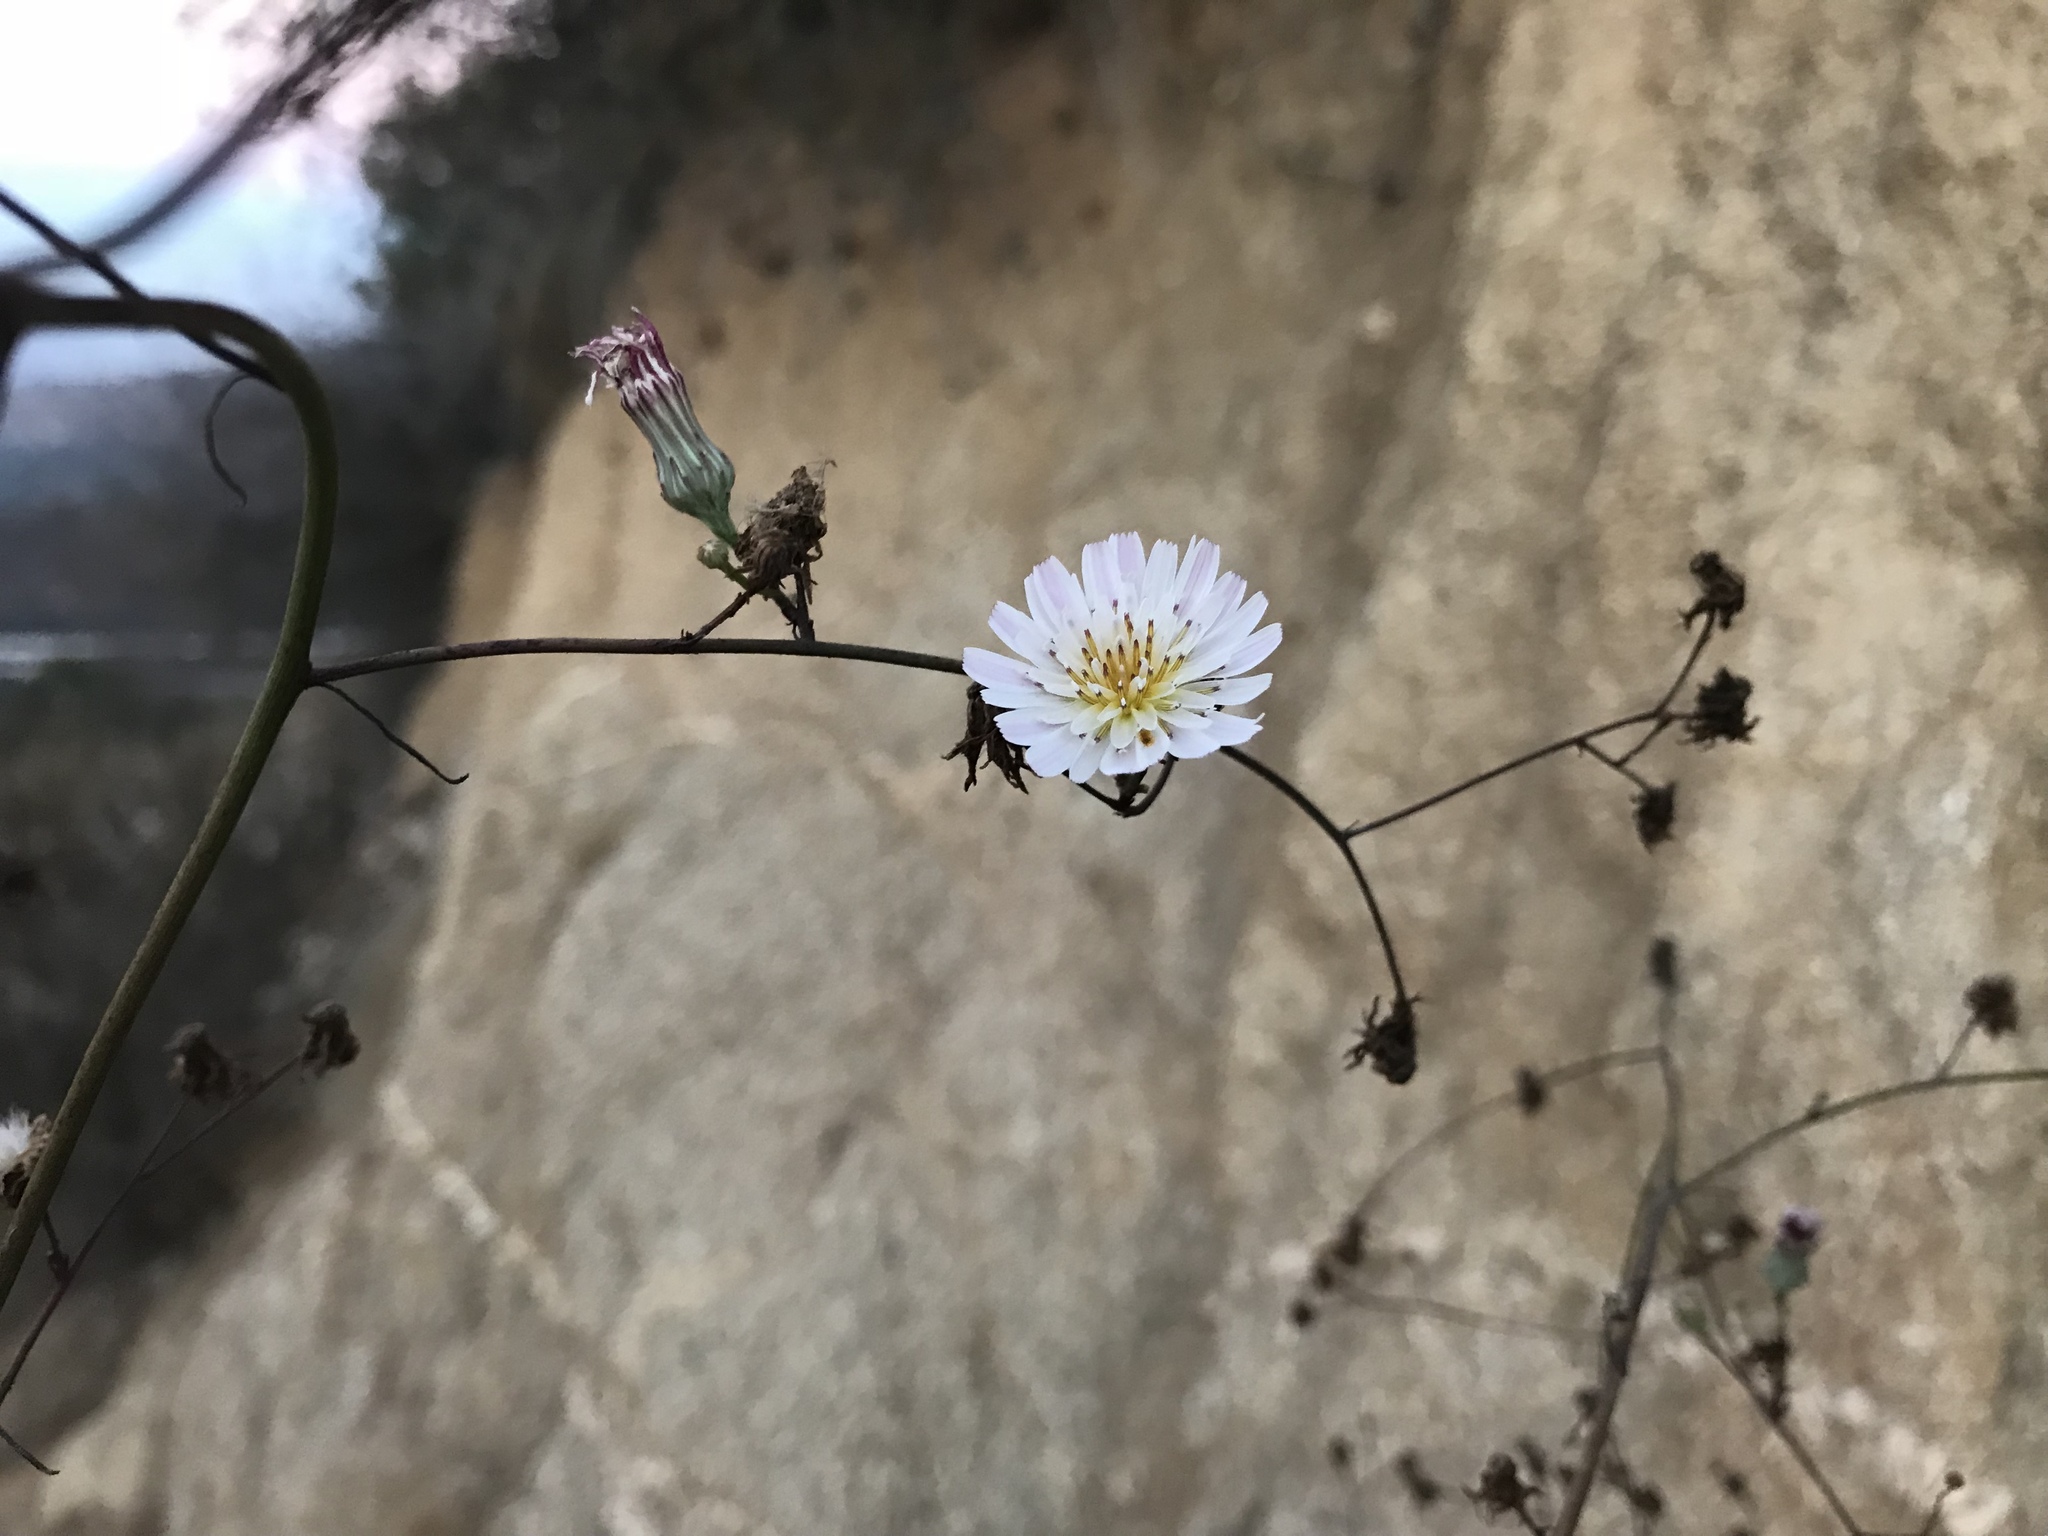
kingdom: Plantae
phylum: Tracheophyta
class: Magnoliopsida
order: Asterales
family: Asteraceae
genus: Malacothrix
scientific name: Malacothrix saxatilis
